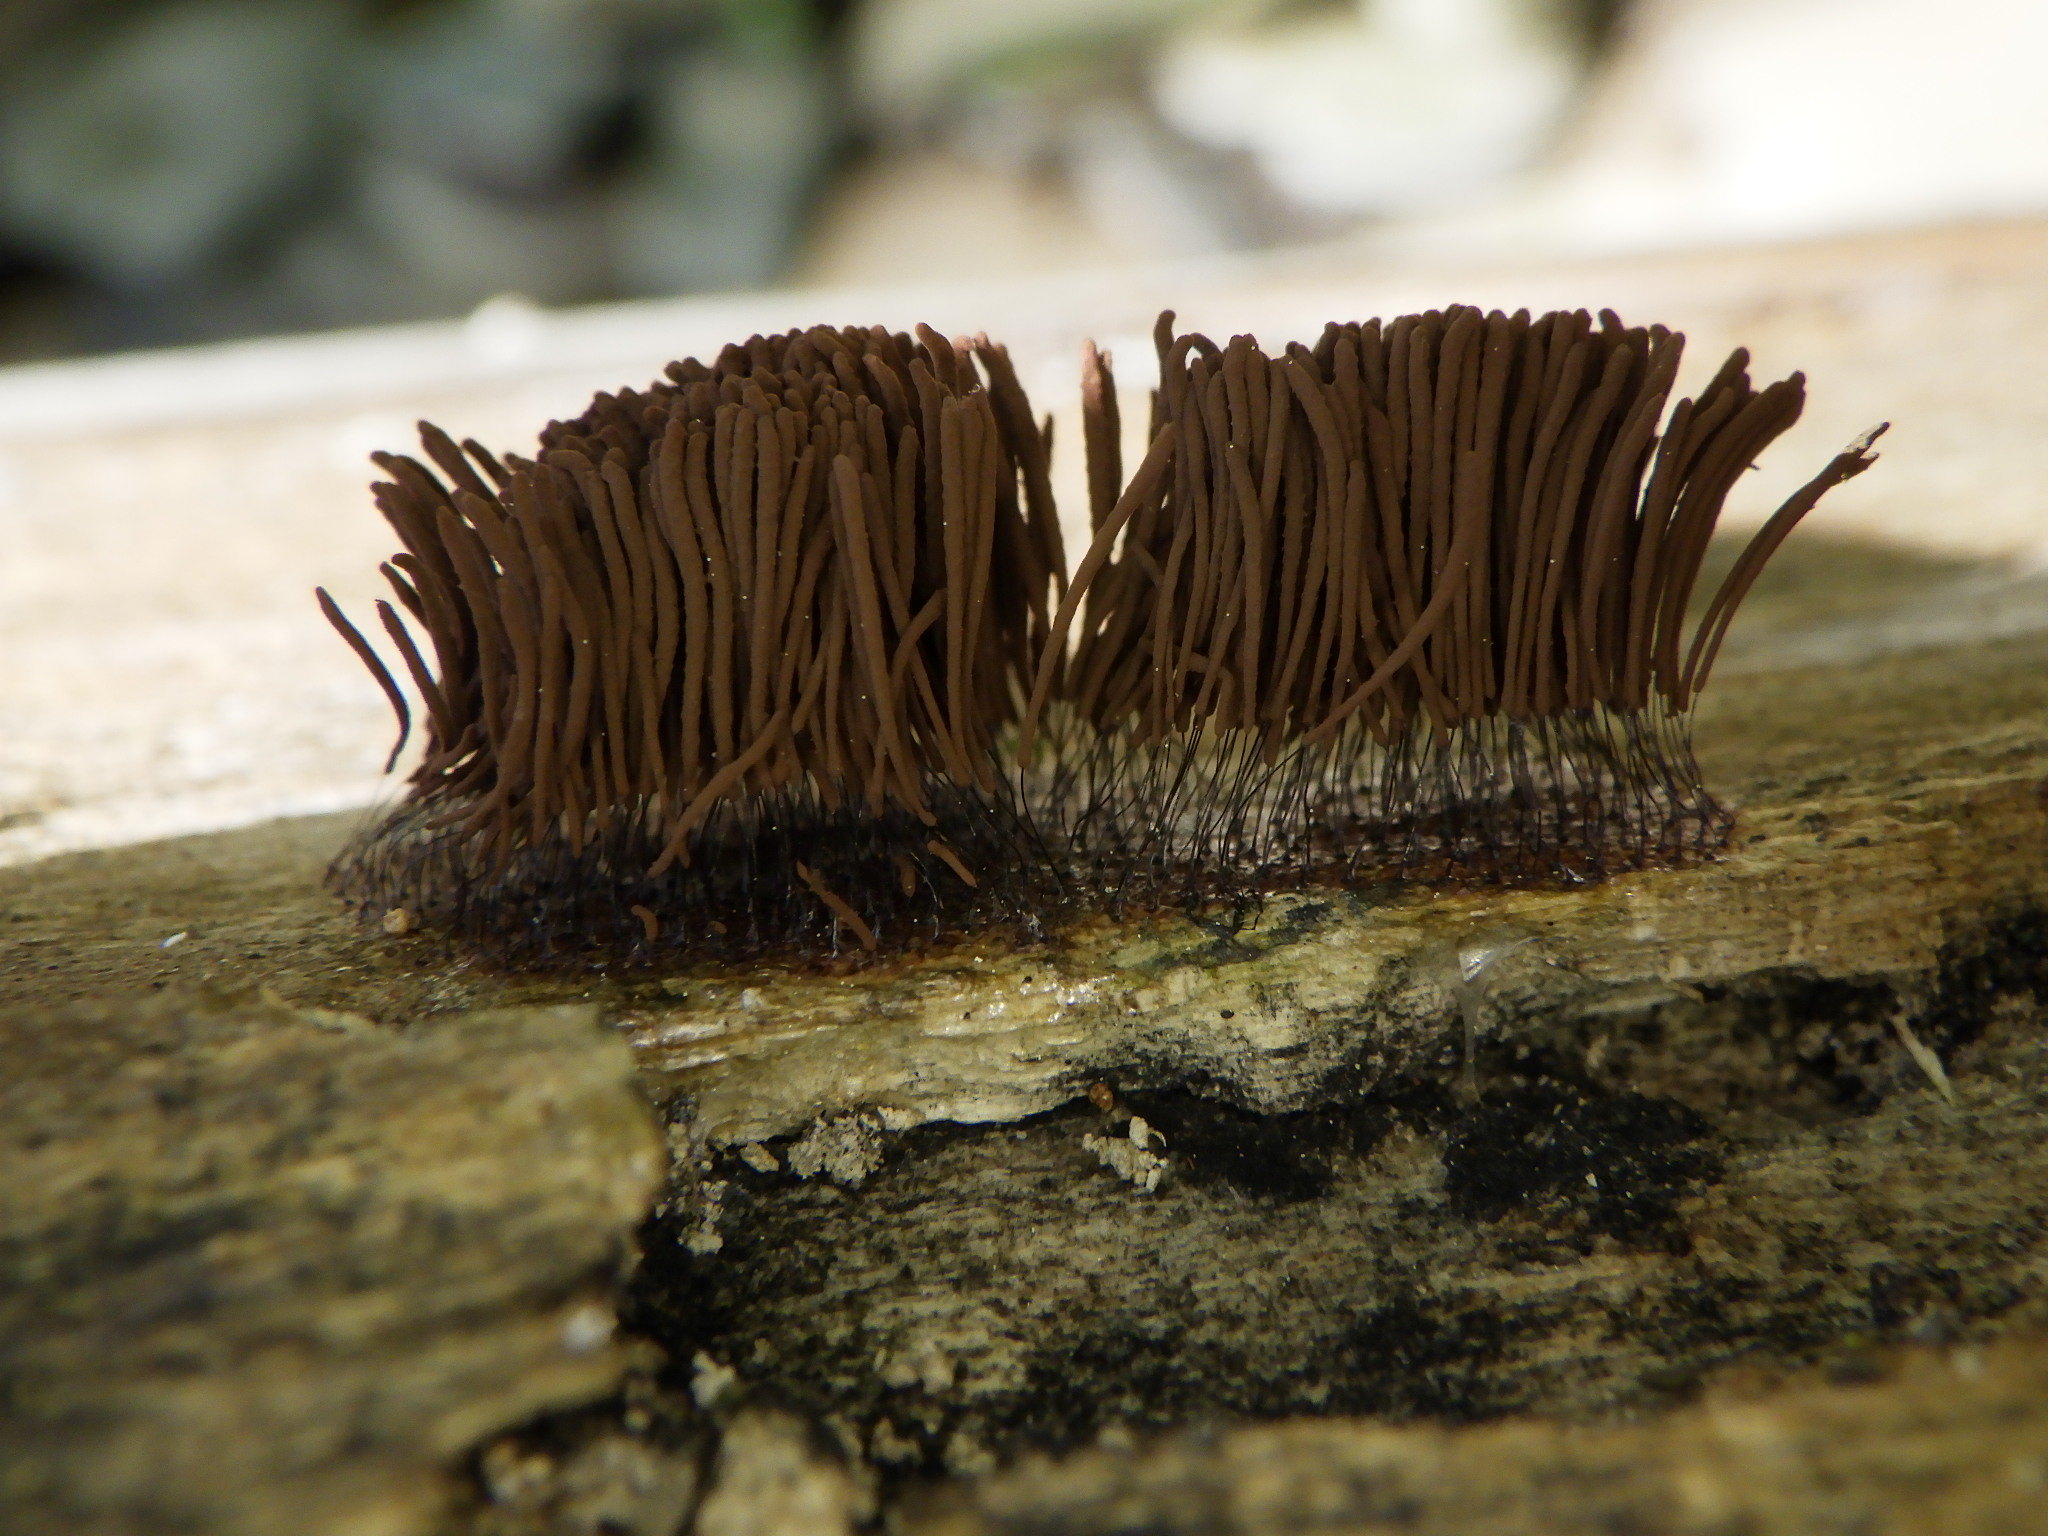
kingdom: Protozoa
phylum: Mycetozoa
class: Myxomycetes
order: Stemonitidales
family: Stemonitidaceae
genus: Stemonitis
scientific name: Stemonitis splendens
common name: Chocolate tube slime
